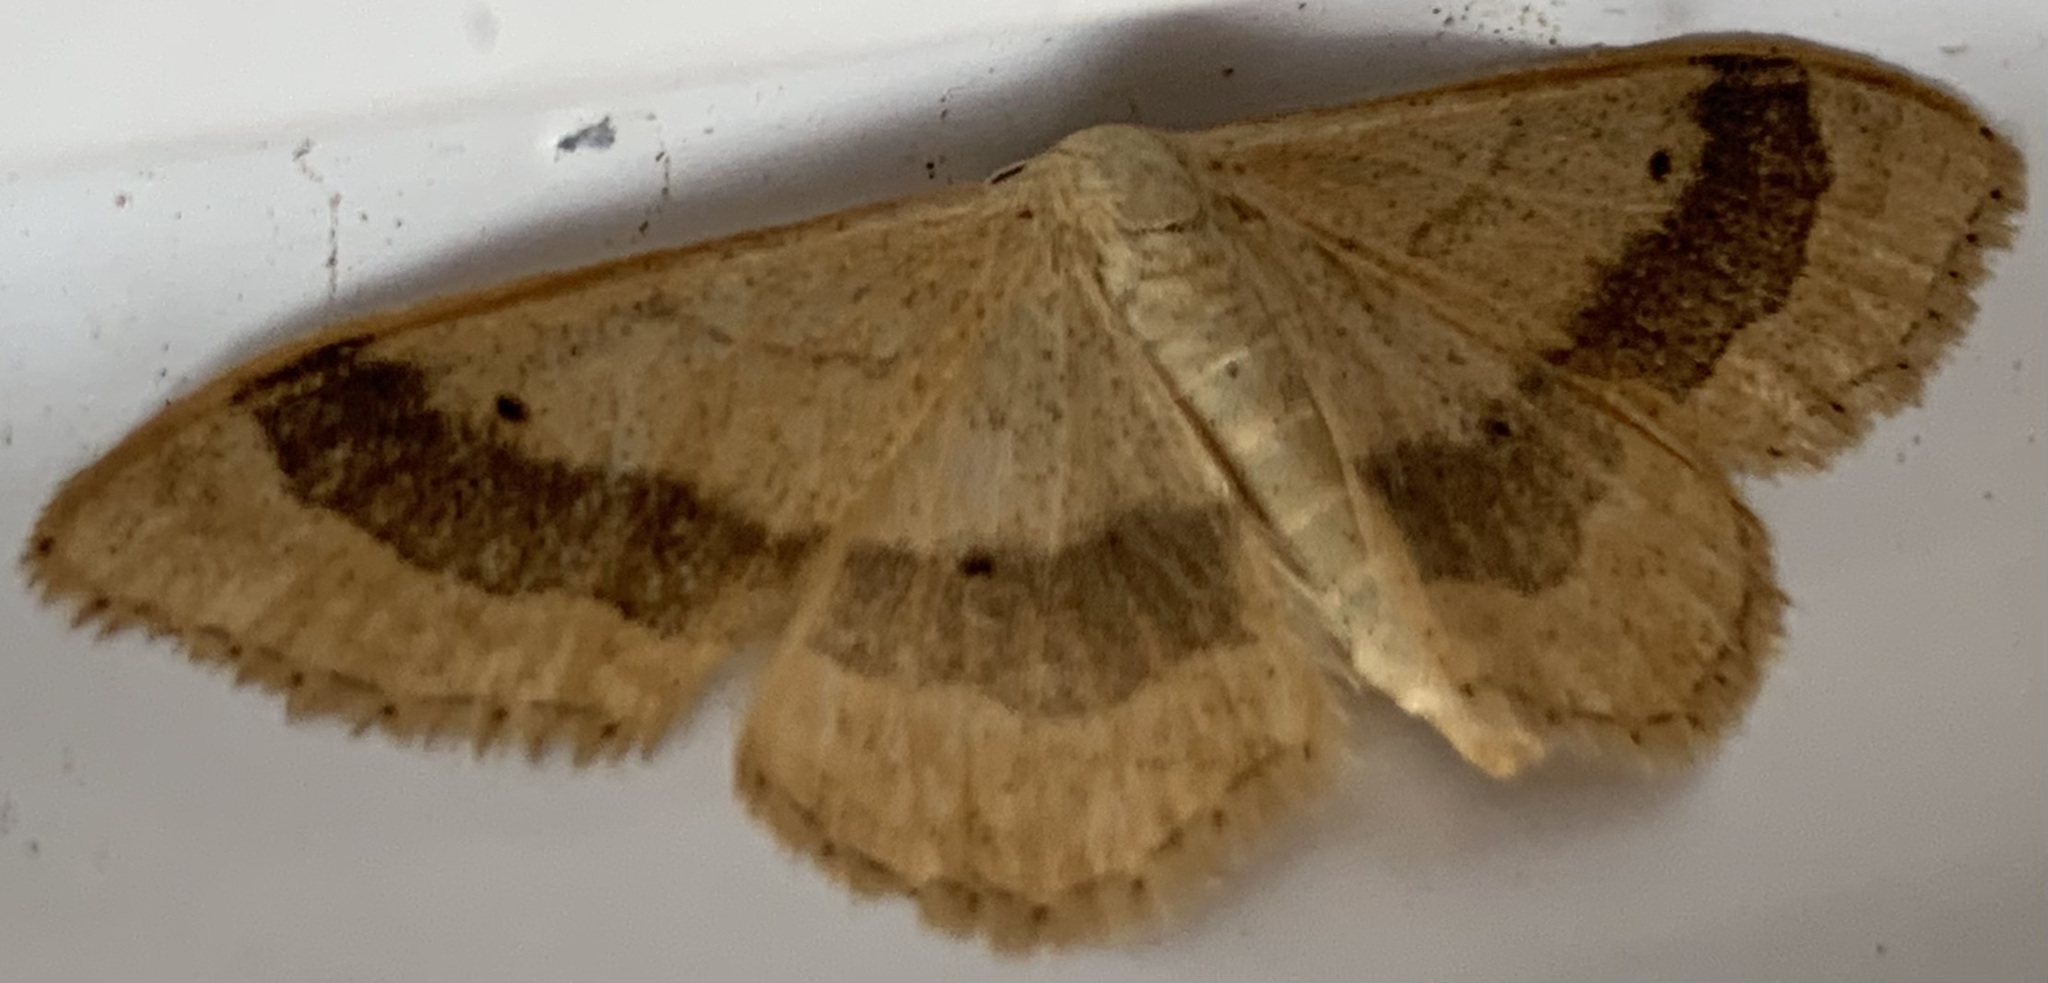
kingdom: Animalia
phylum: Arthropoda
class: Insecta
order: Lepidoptera
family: Geometridae
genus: Idaea
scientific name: Idaea aversata
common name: Riband wave
